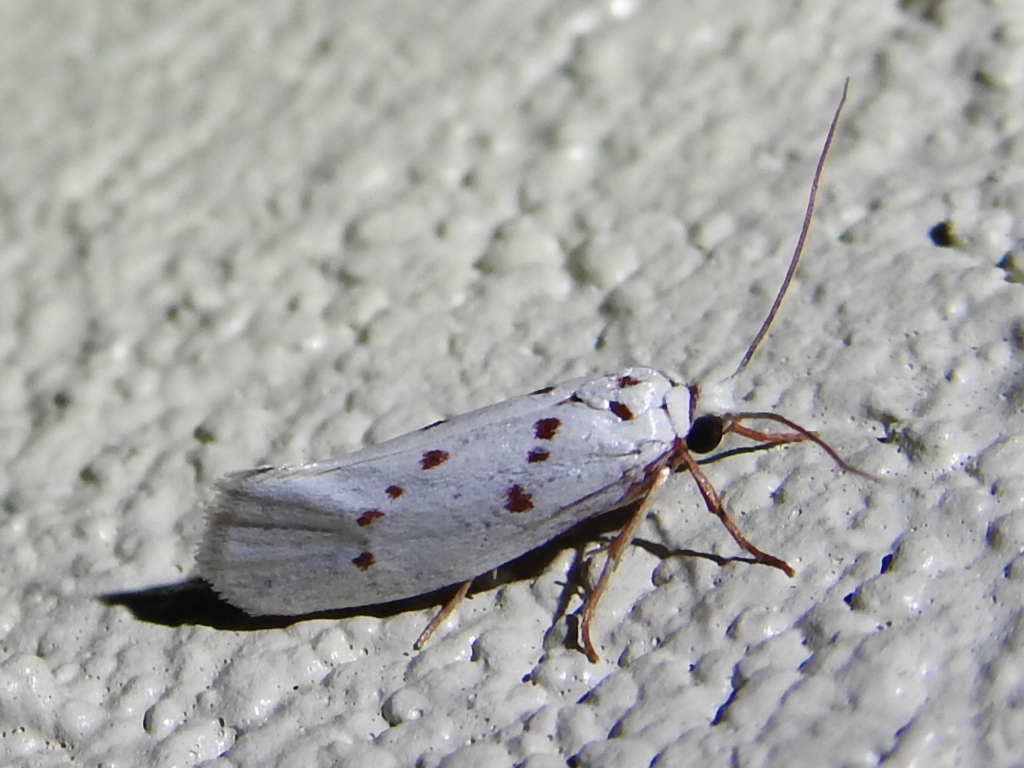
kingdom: Animalia
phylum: Arthropoda
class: Insecta
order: Lepidoptera
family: Lacturidae
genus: Lactura
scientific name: Lactura
